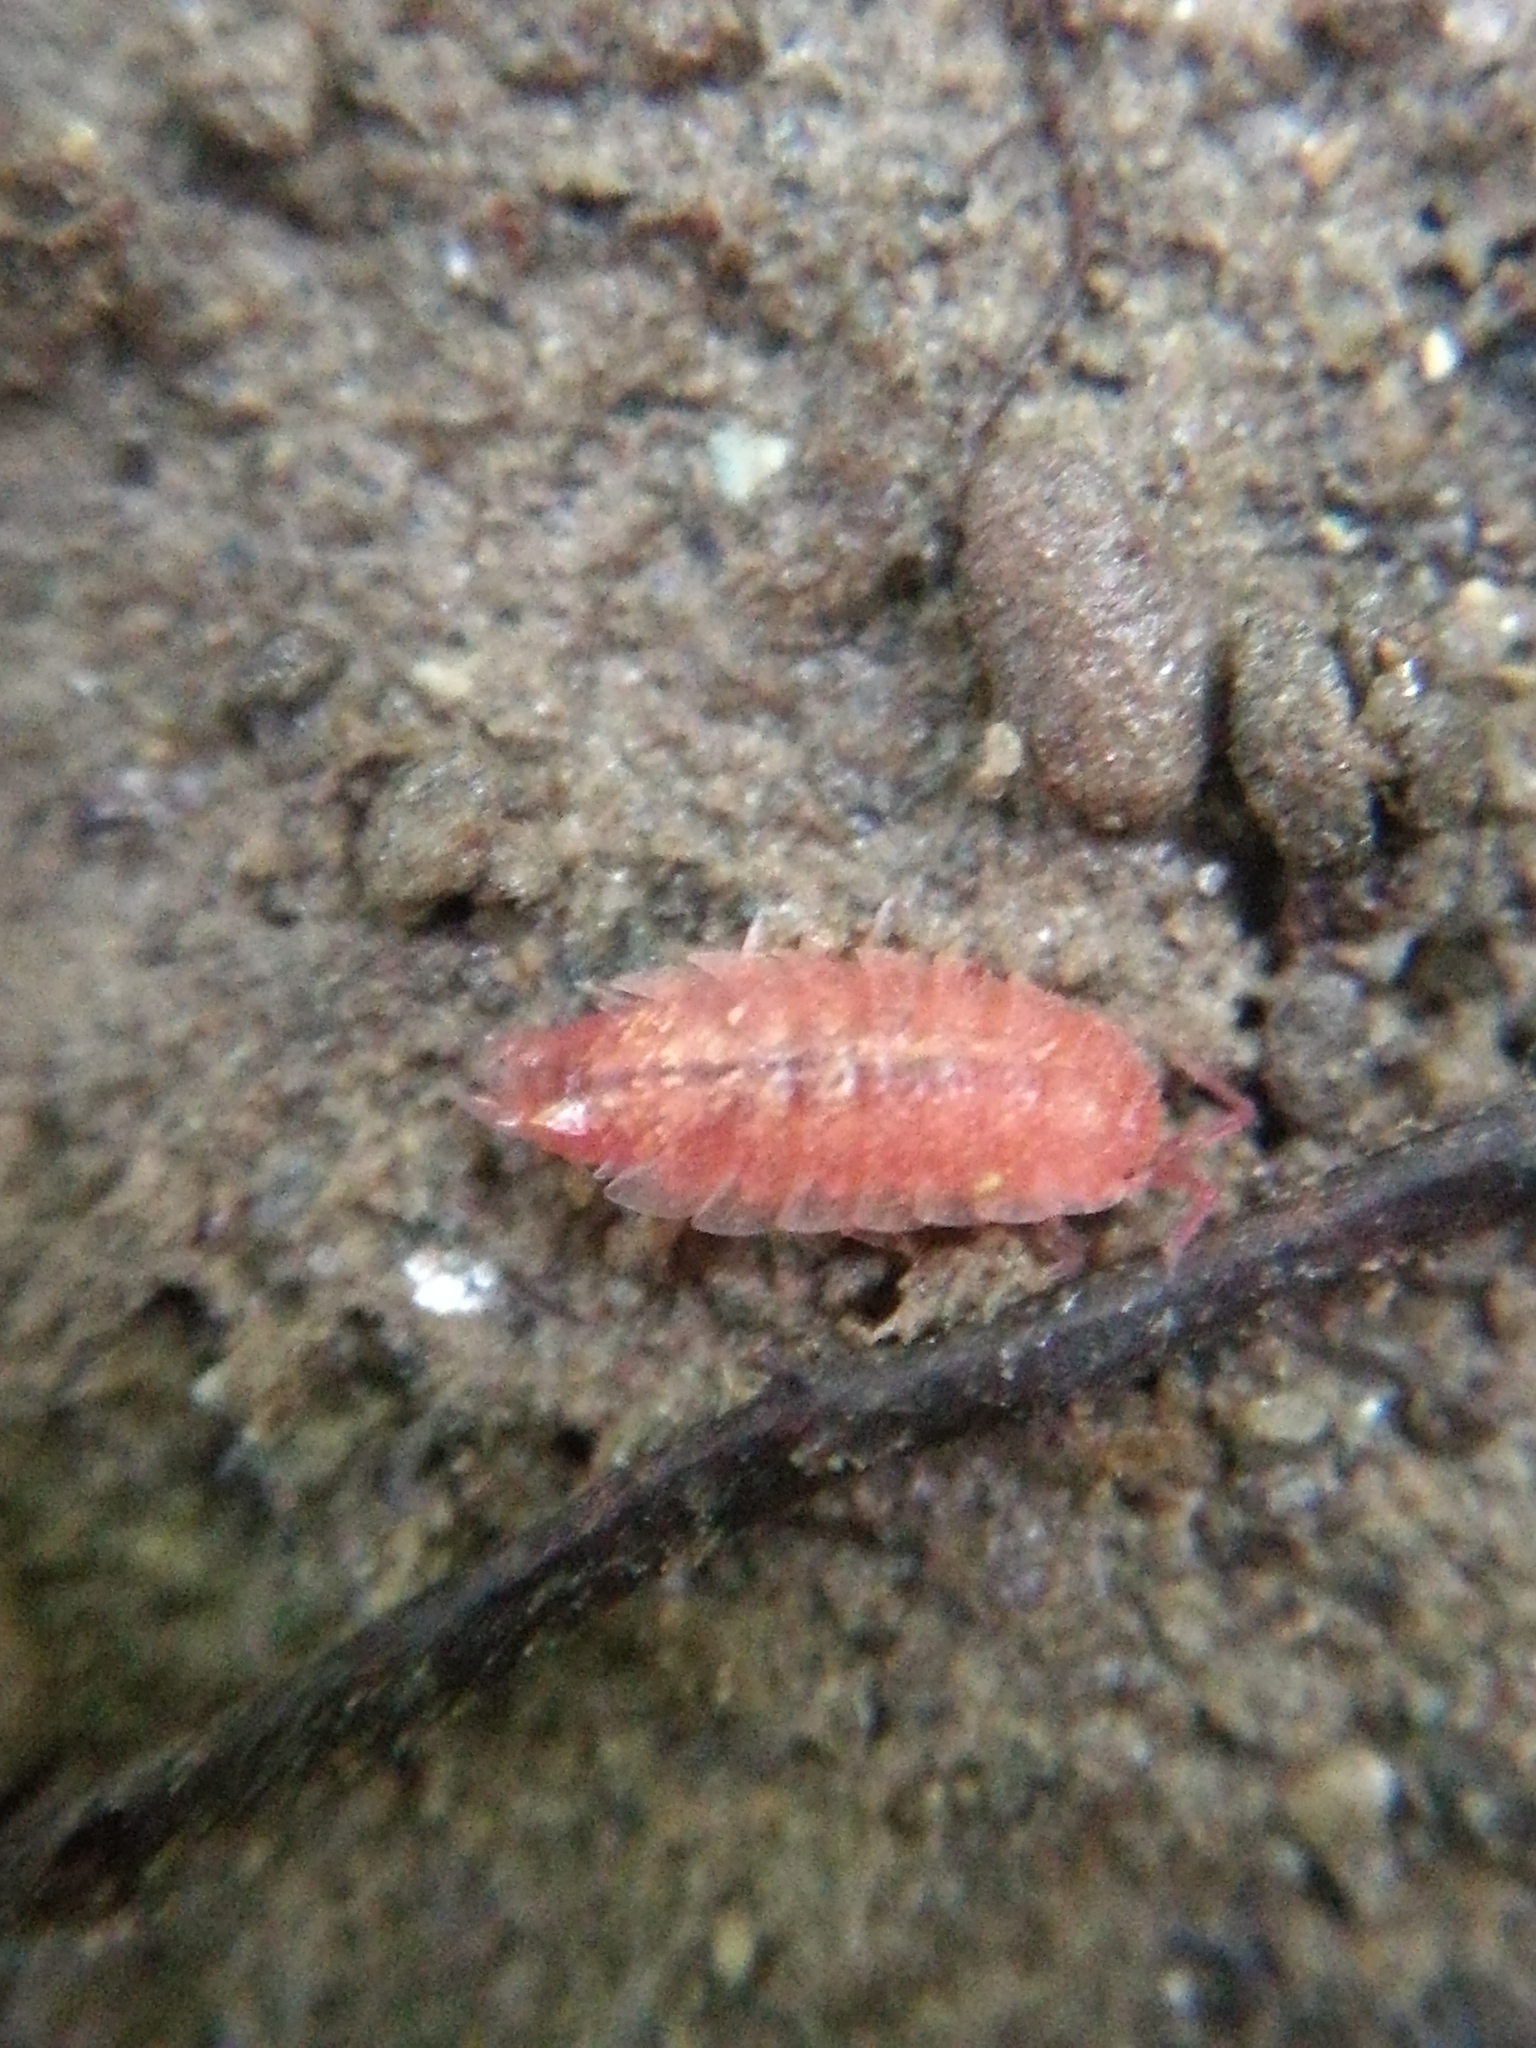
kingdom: Animalia
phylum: Arthropoda
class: Malacostraca
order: Isopoda
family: Trichoniscidae
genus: Androniscus
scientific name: Androniscus dentiger
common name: Rosy woodlouse
